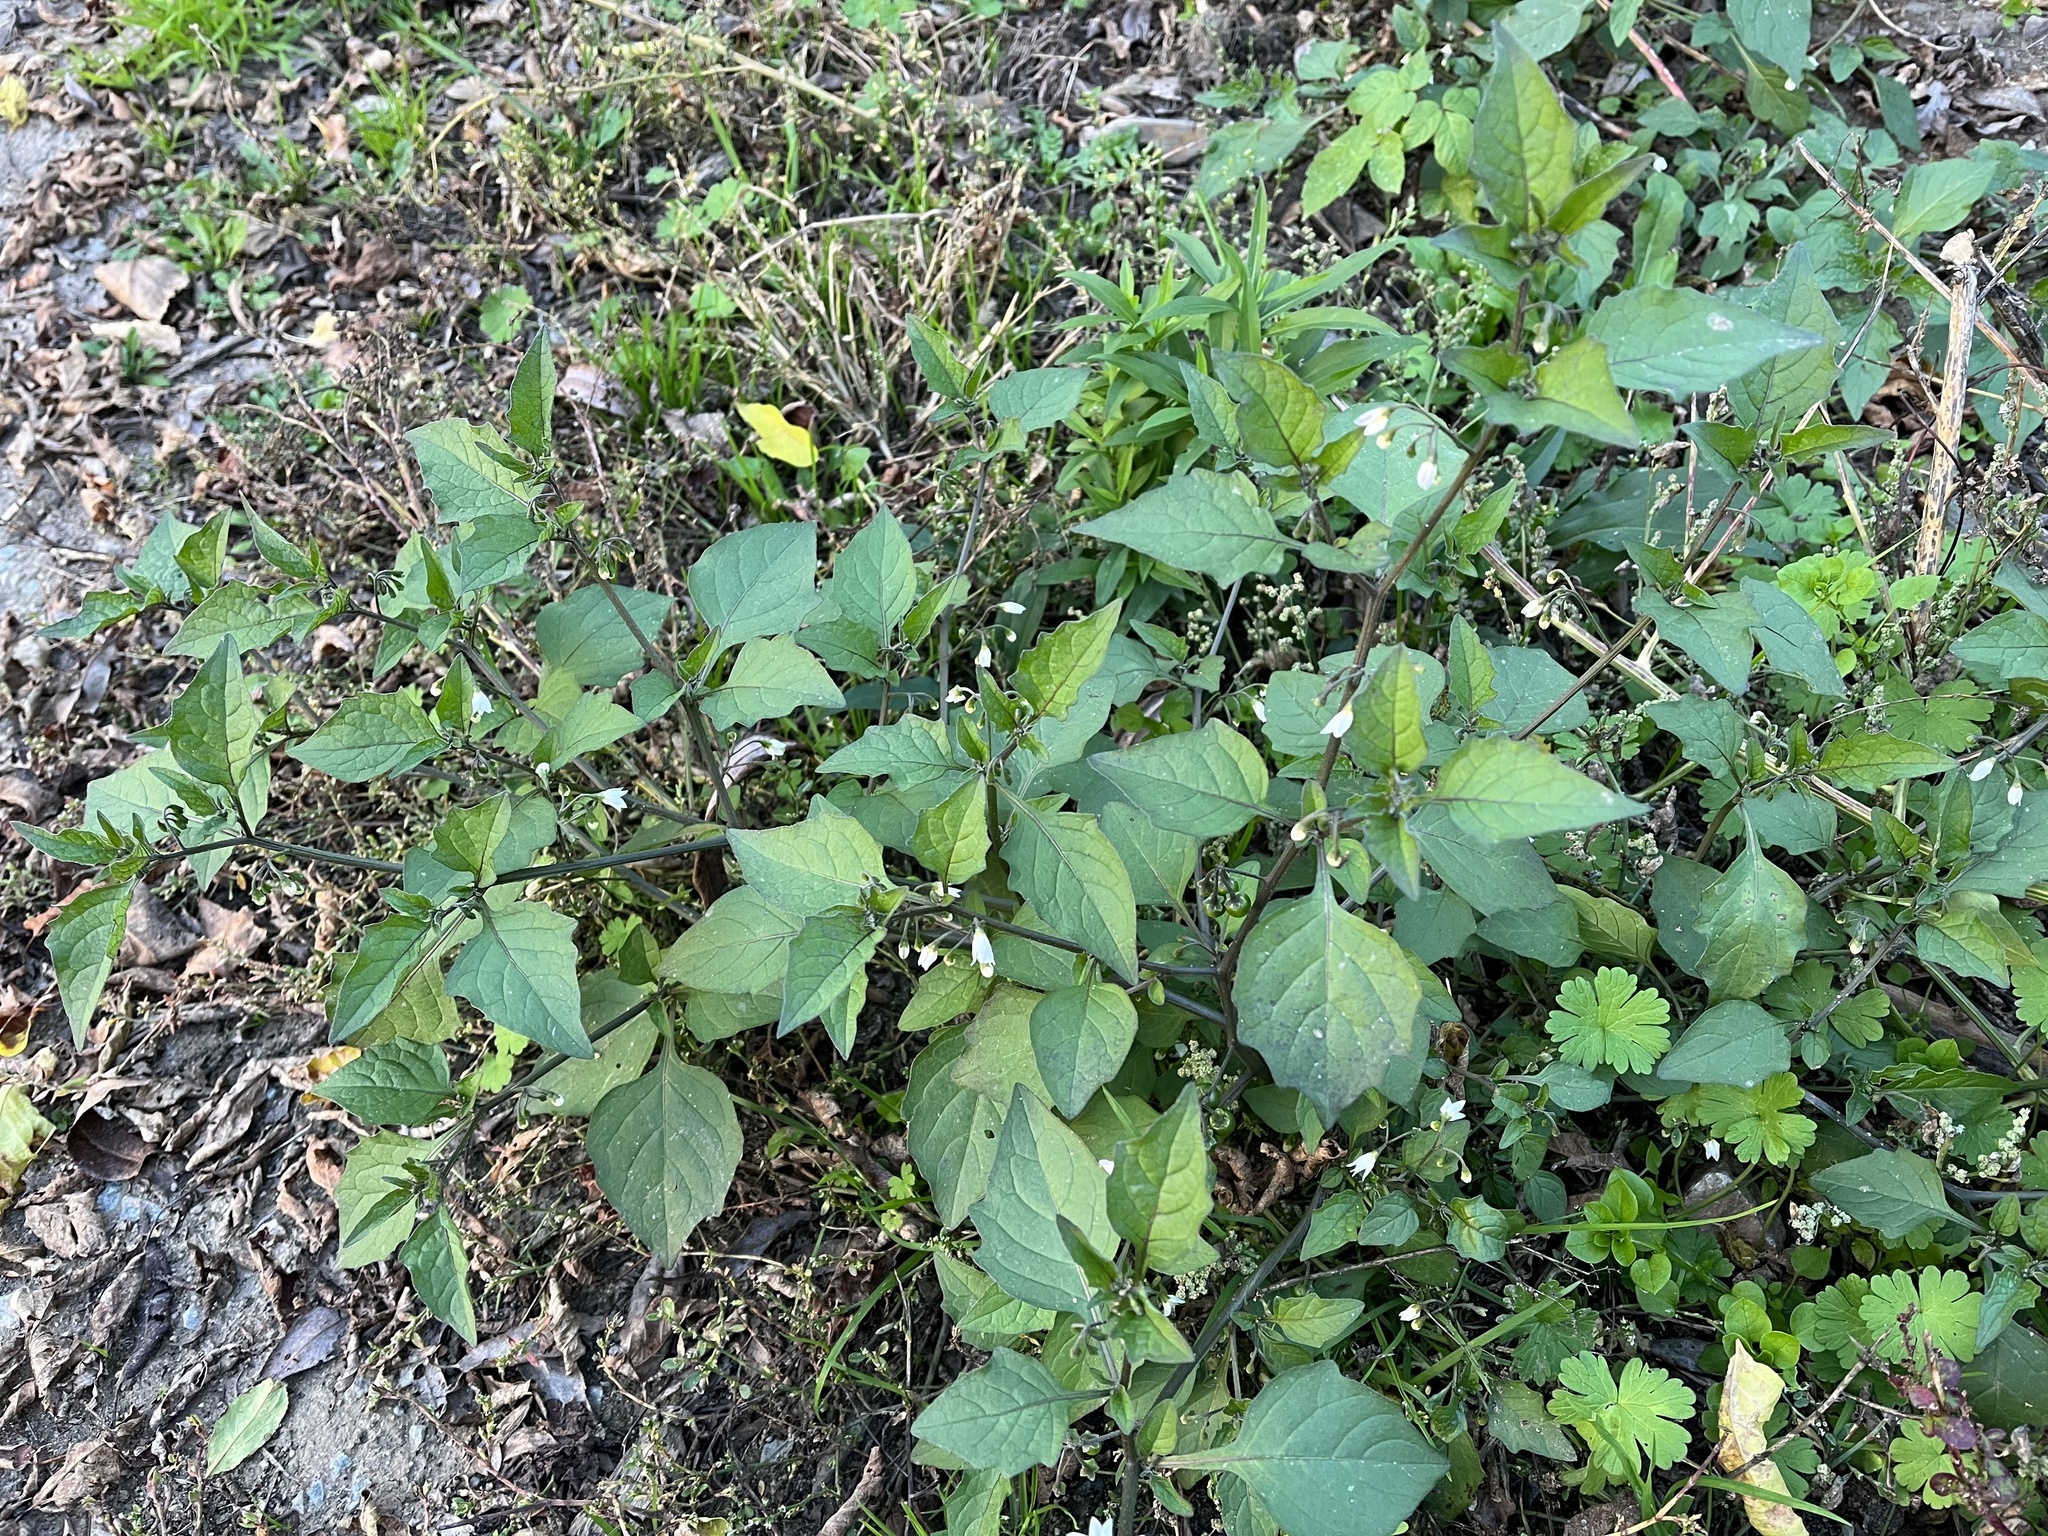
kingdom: Plantae
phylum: Tracheophyta
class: Magnoliopsida
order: Solanales
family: Solanaceae
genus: Solanum
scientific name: Solanum nigrum
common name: Black nightshade
